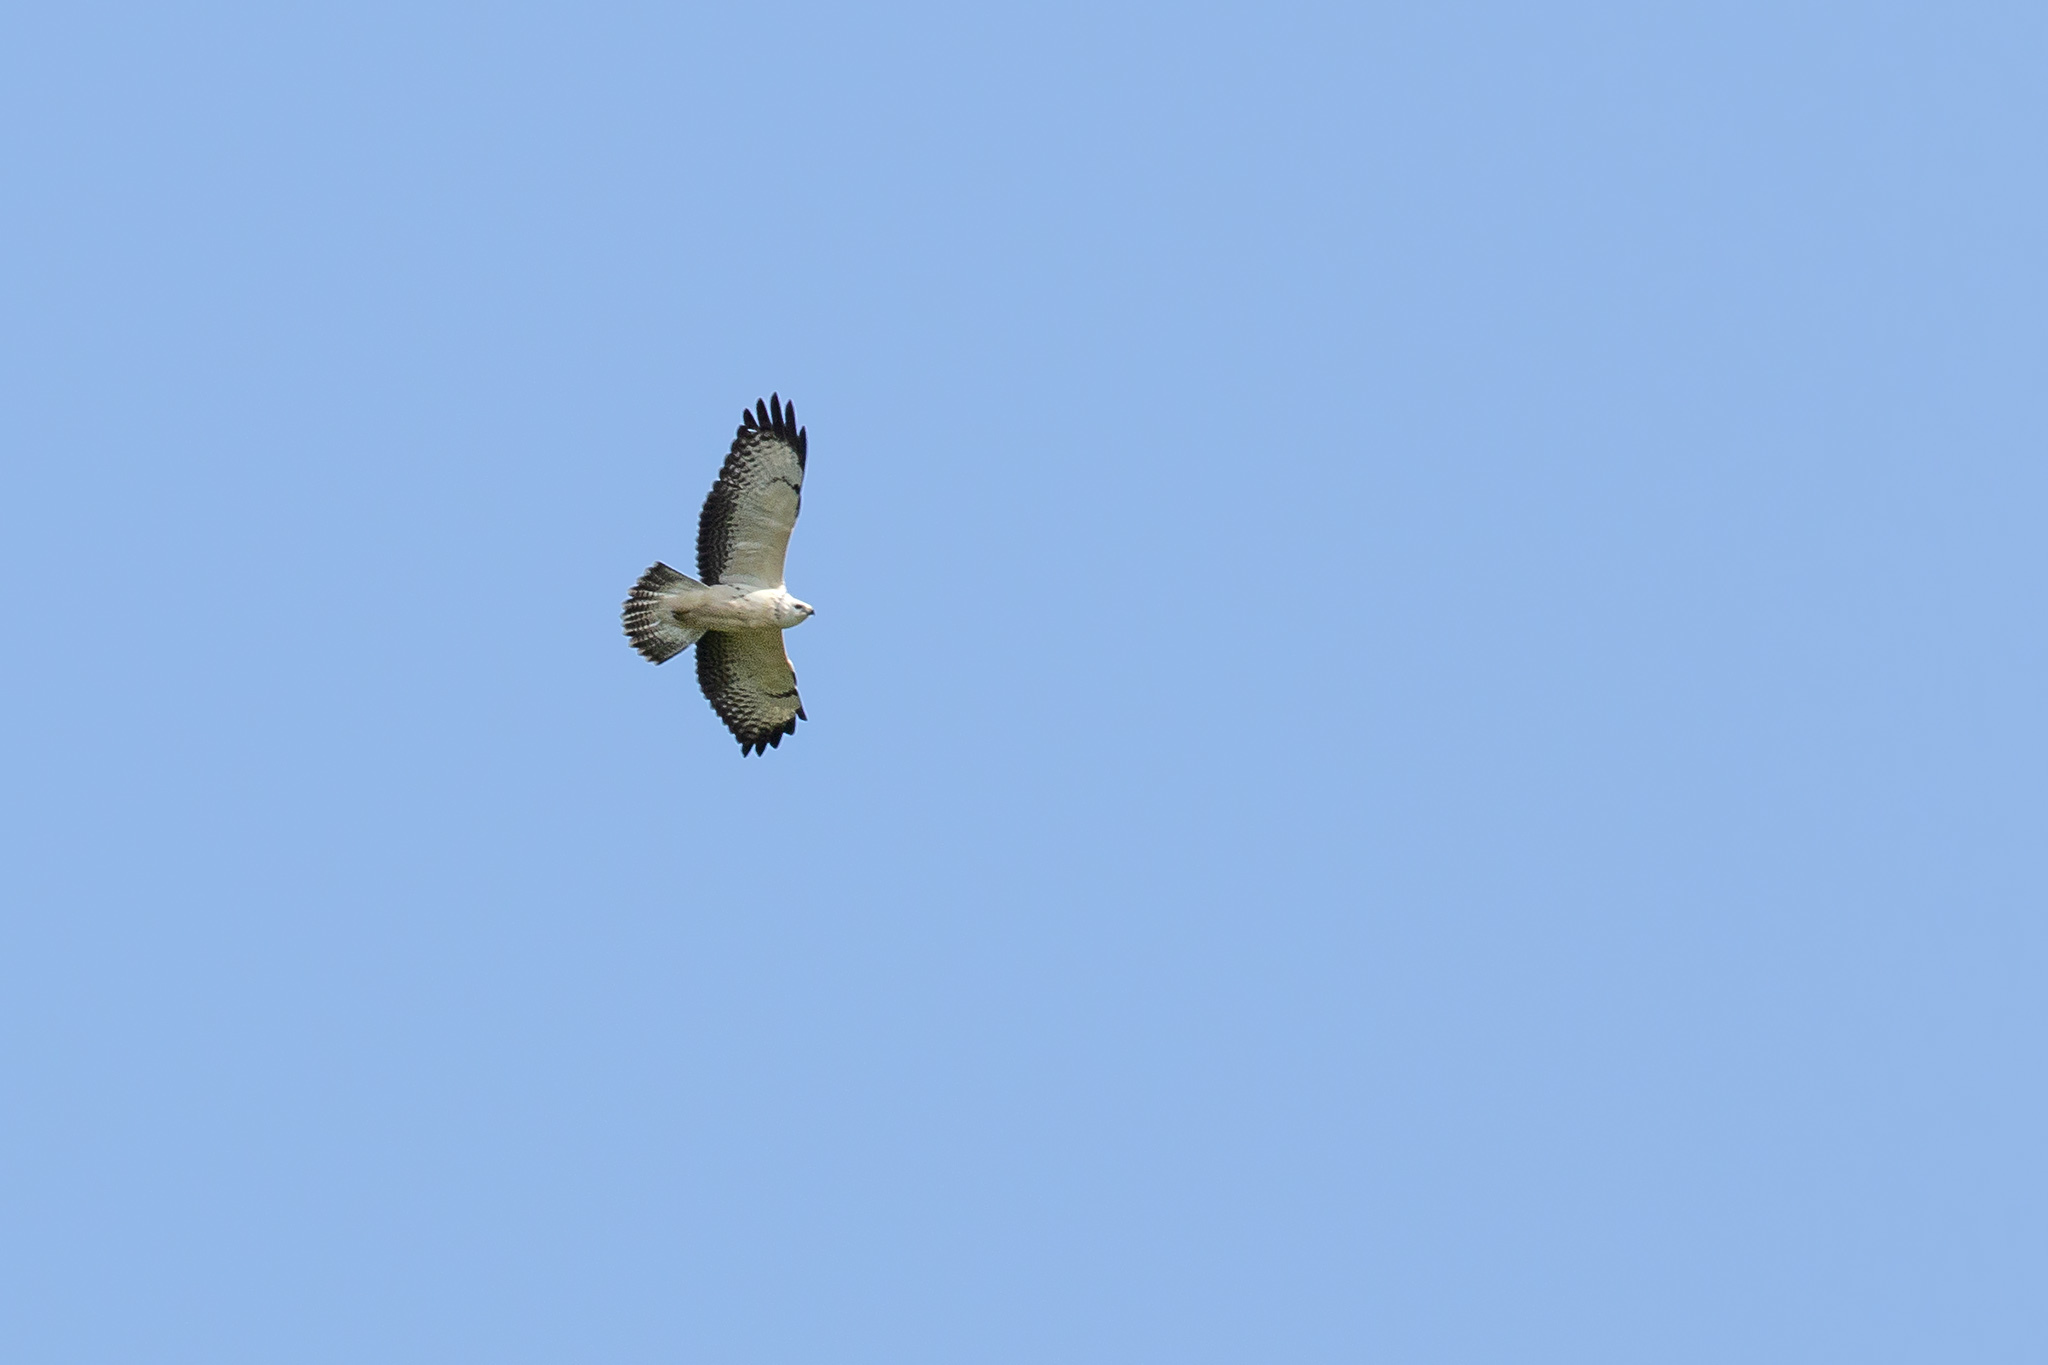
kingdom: Animalia
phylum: Chordata
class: Aves
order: Accipitriformes
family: Accipitridae
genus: Buteo
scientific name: Buteo buteo
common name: Common buzzard
